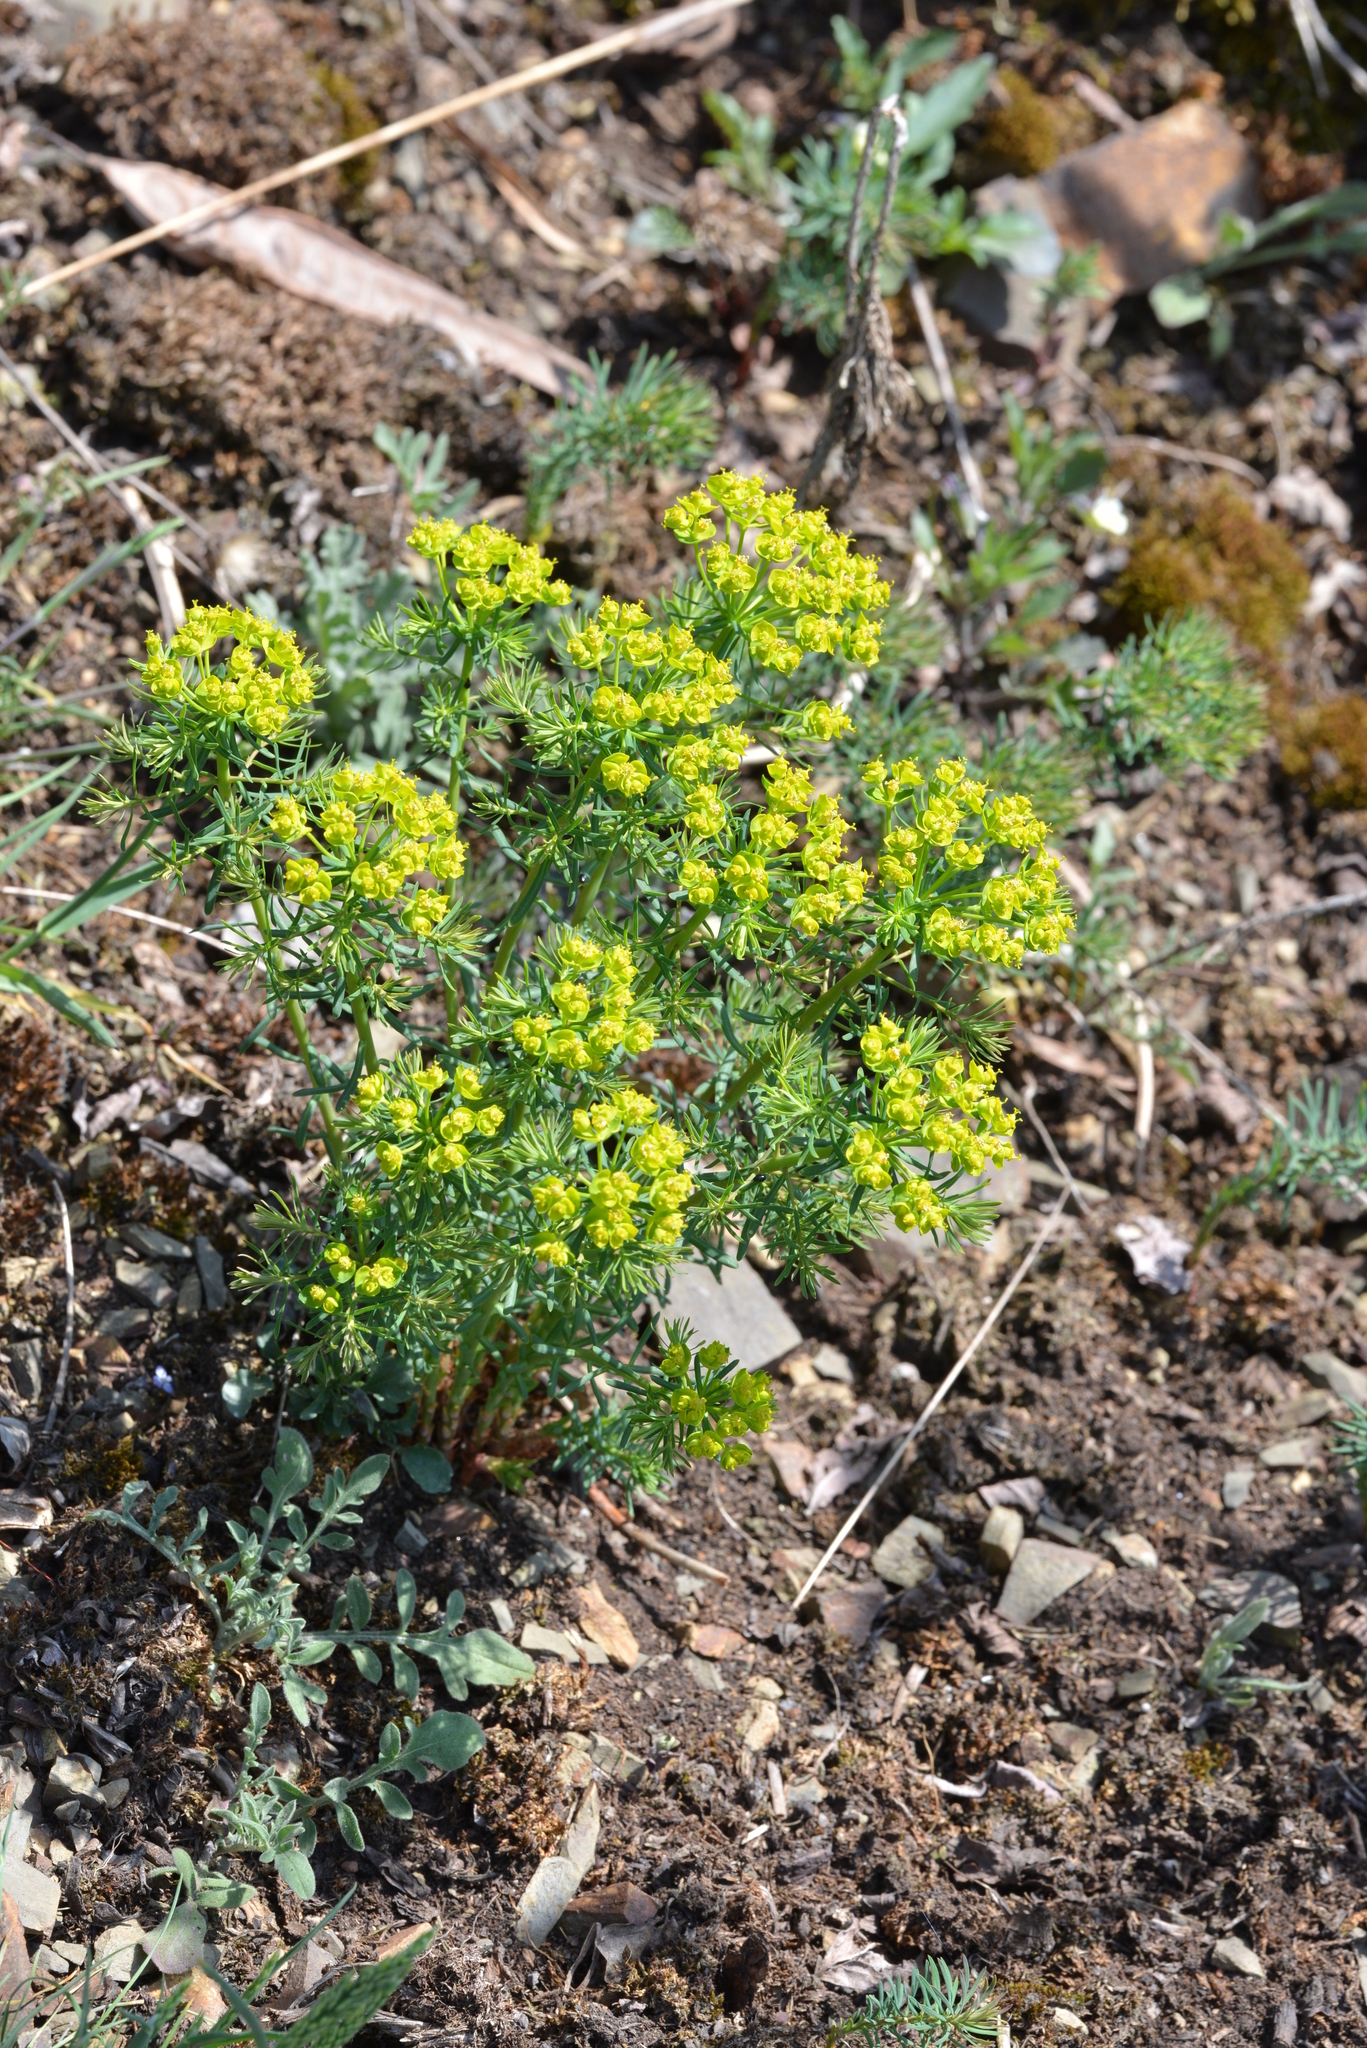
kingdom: Plantae
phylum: Tracheophyta
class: Magnoliopsida
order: Malpighiales
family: Euphorbiaceae
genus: Euphorbia
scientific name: Euphorbia cyparissias
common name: Cypress spurge
